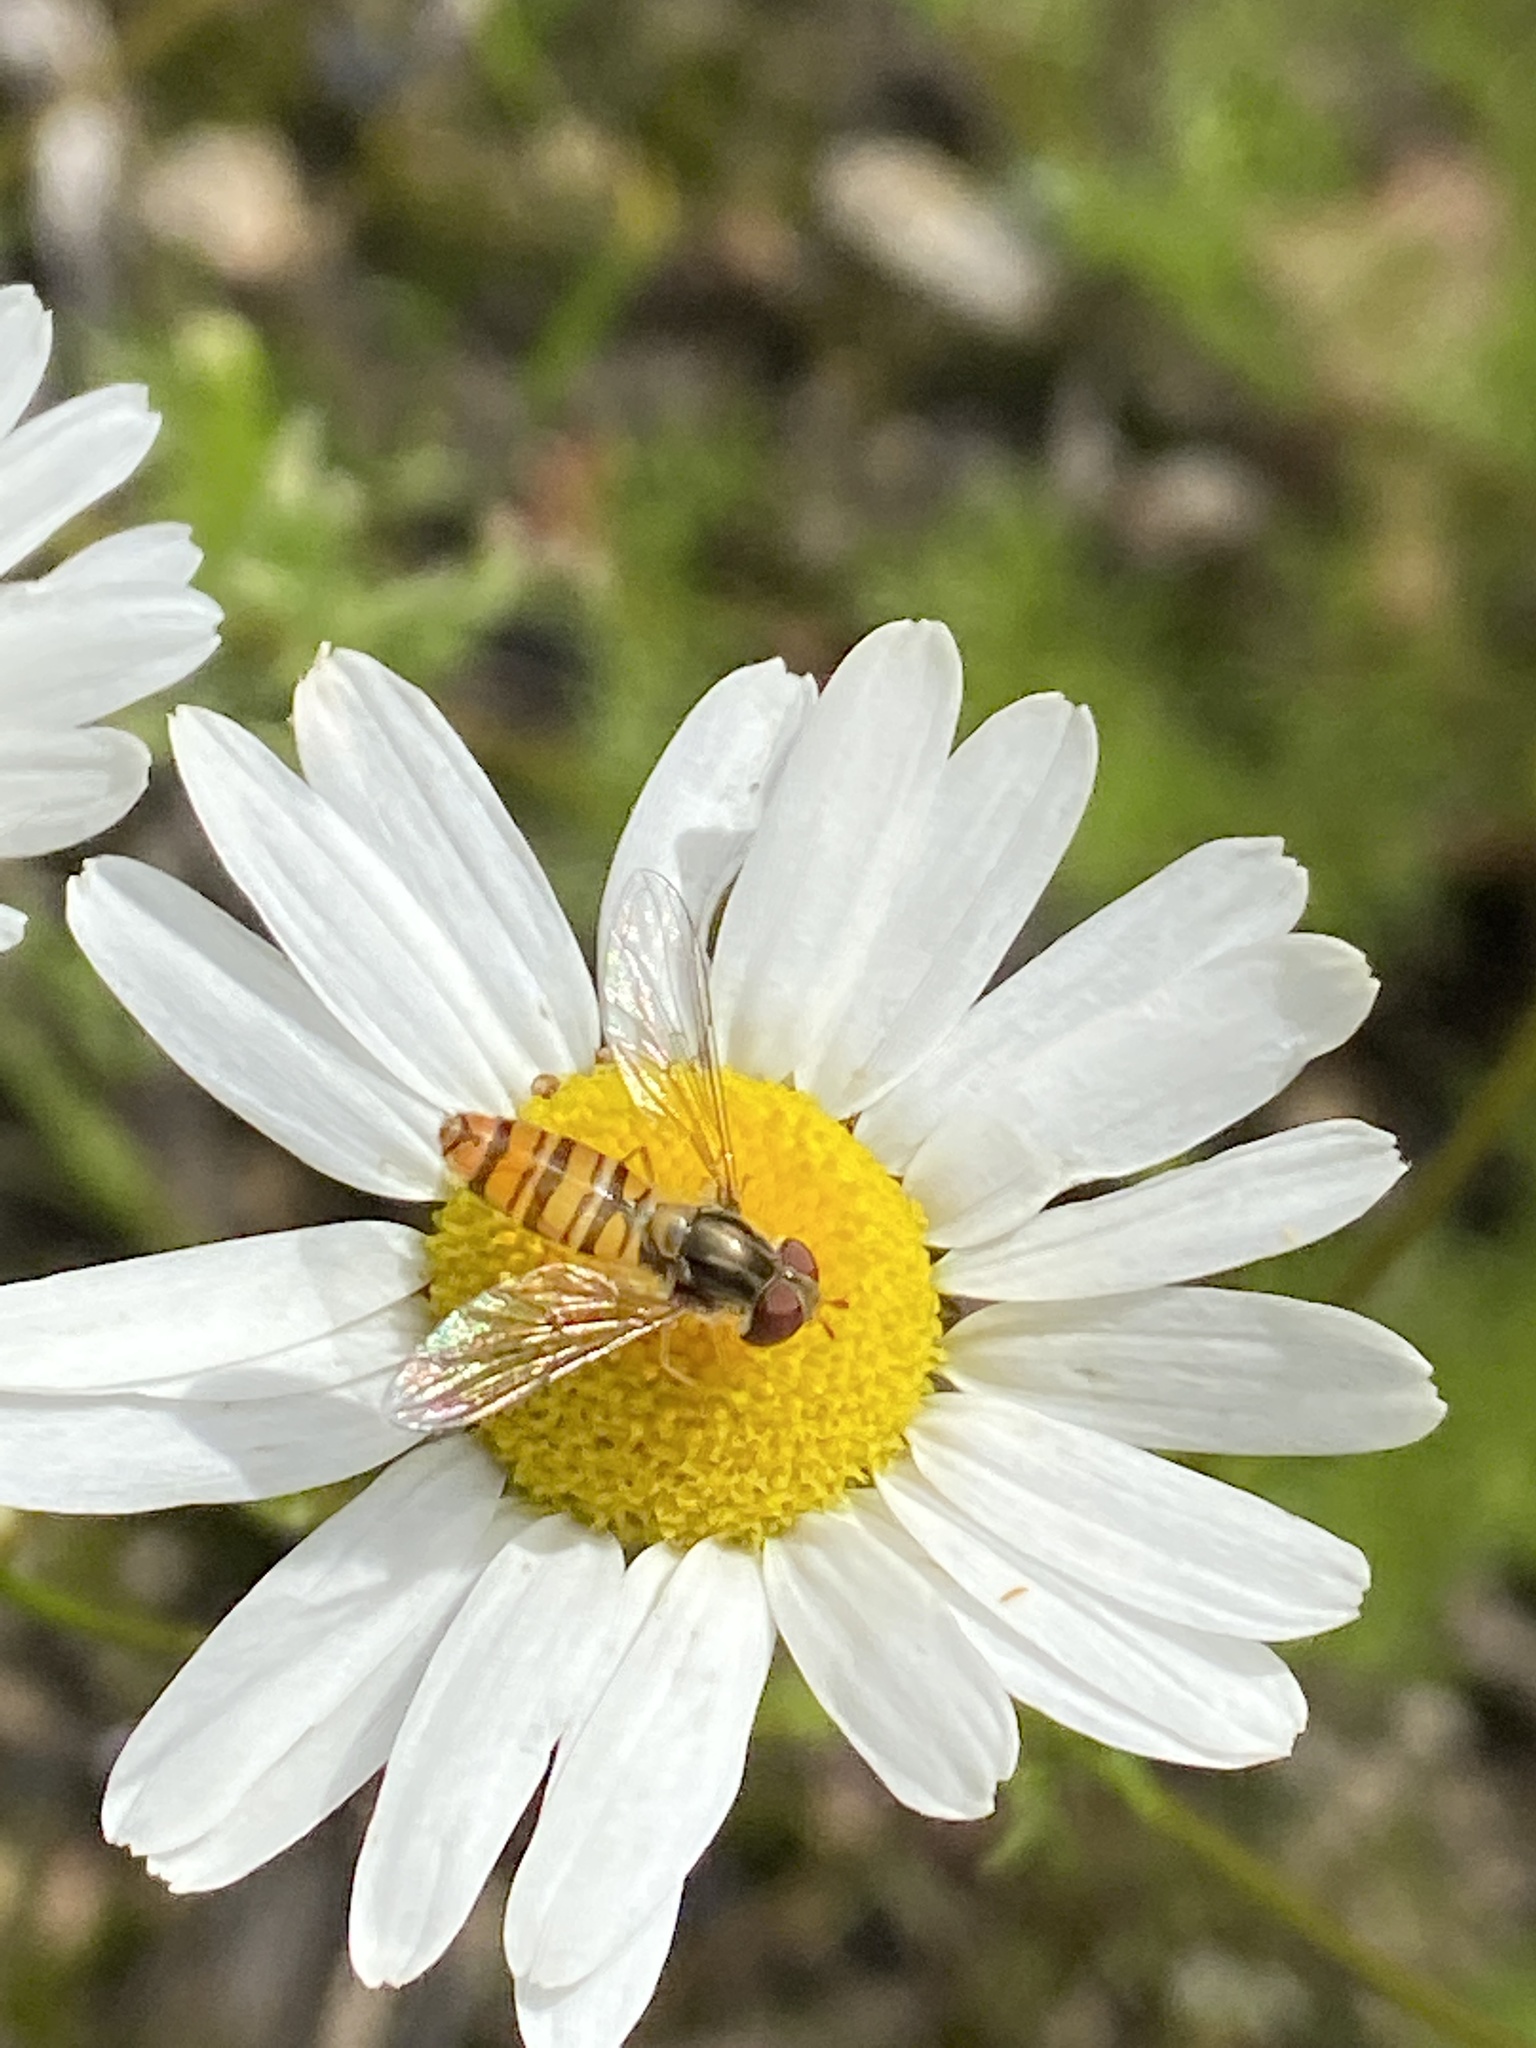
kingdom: Animalia
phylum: Arthropoda
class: Insecta
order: Diptera
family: Syrphidae
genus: Episyrphus
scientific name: Episyrphus balteatus
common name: Marmalade hoverfly
